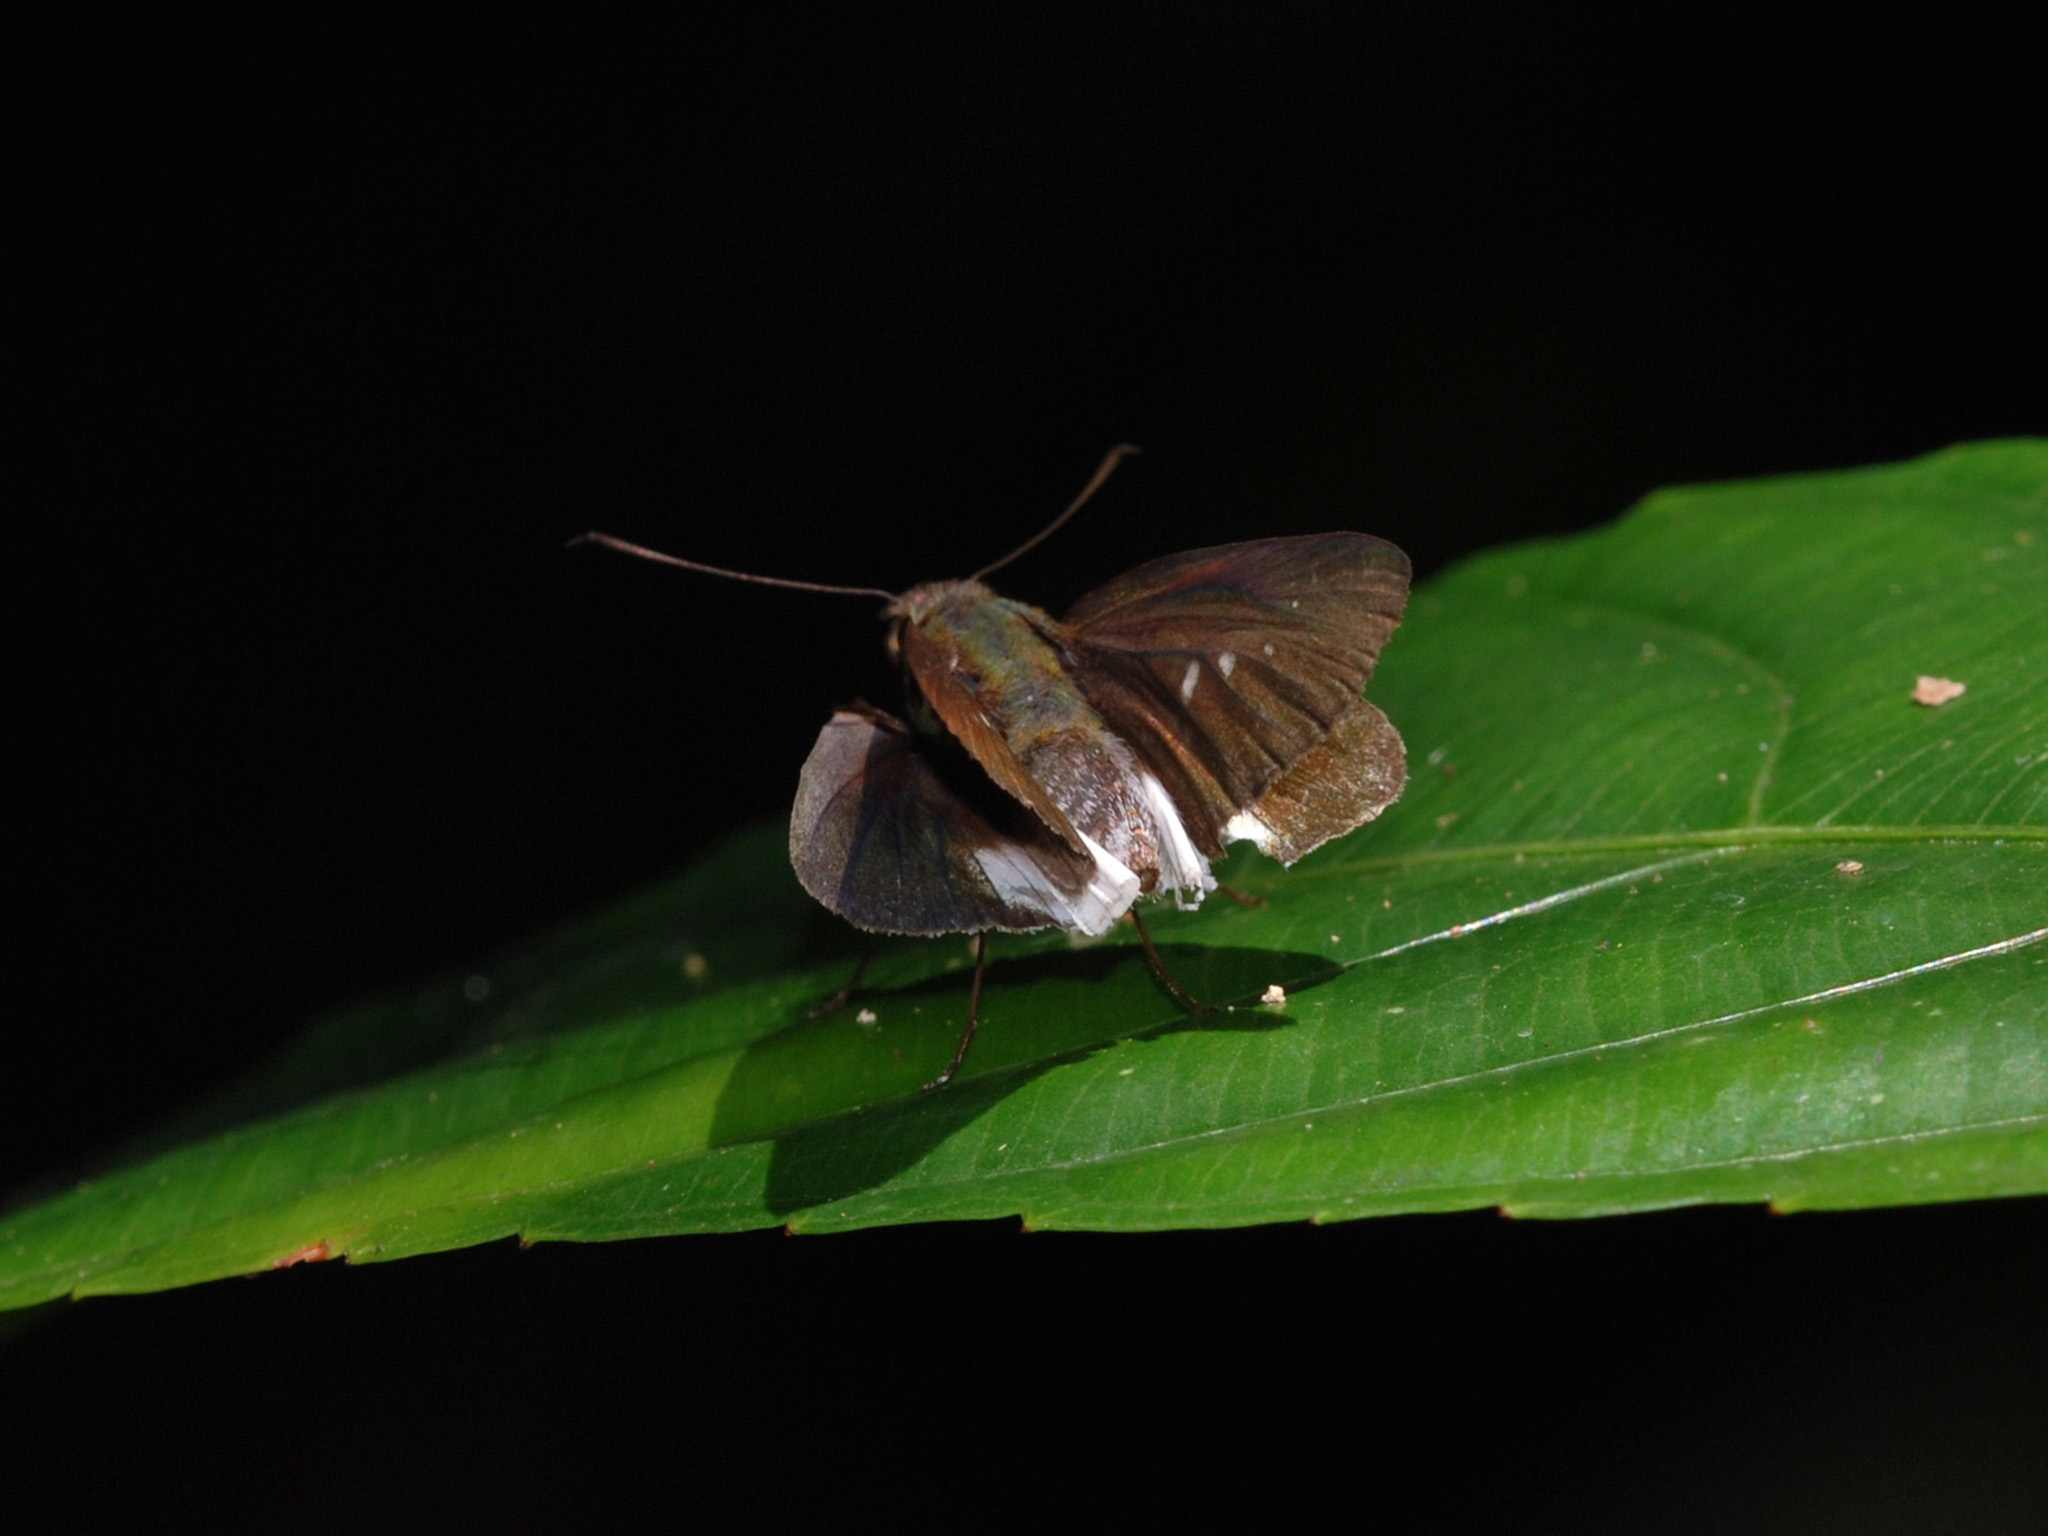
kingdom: Animalia
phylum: Arthropoda
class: Insecta
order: Lepidoptera
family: Hesperiidae
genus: Iton
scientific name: Iton semamora
